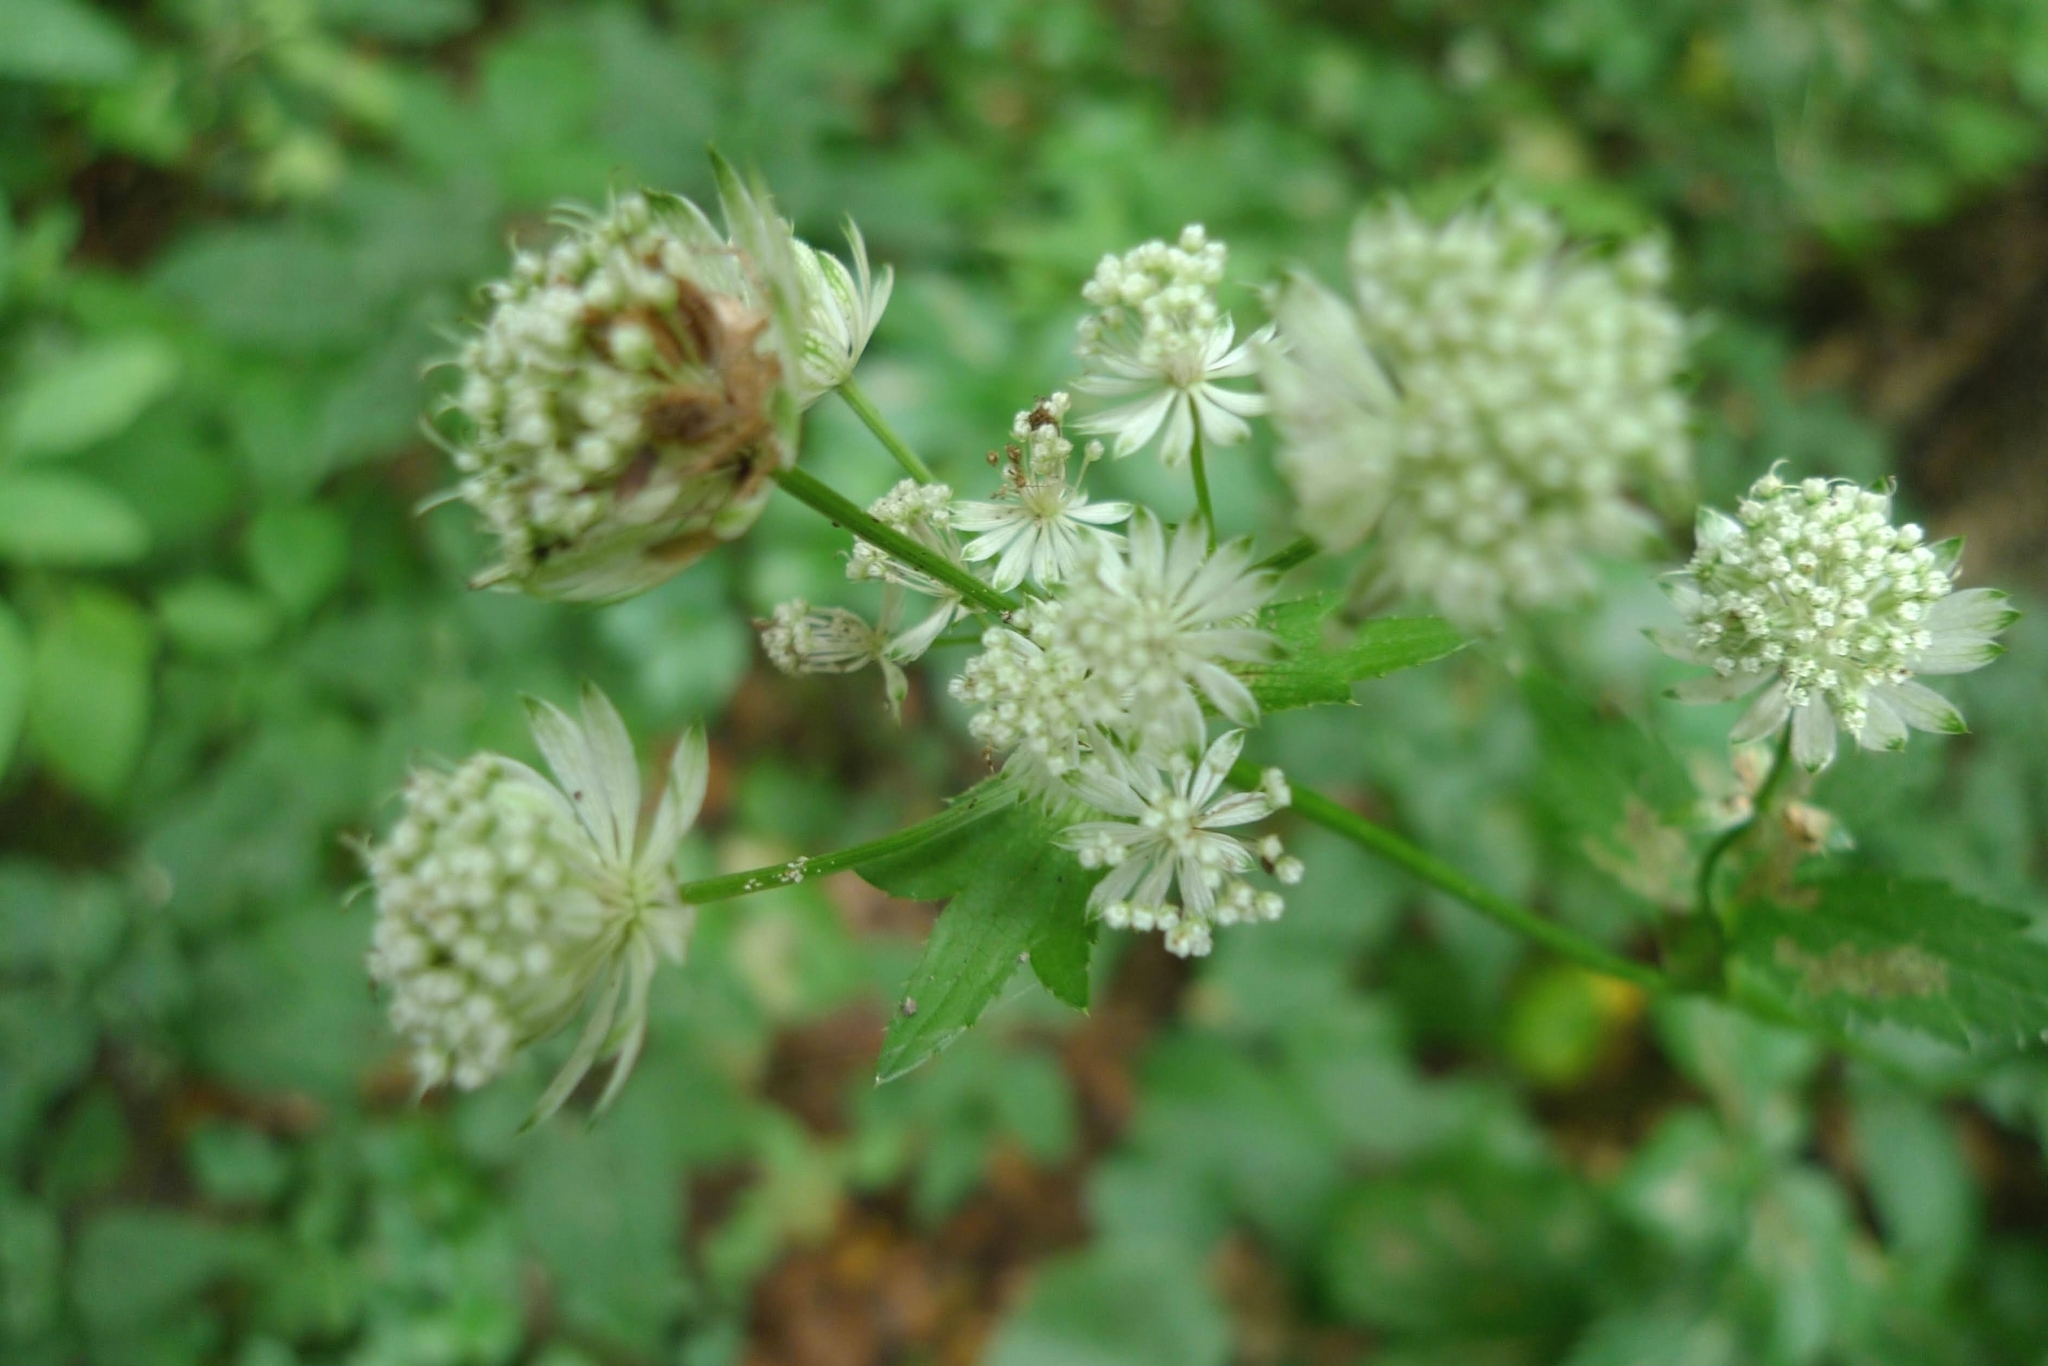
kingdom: Plantae
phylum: Tracheophyta
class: Magnoliopsida
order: Apiales
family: Apiaceae
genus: Astrantia
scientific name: Astrantia major
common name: Greater masterwort
